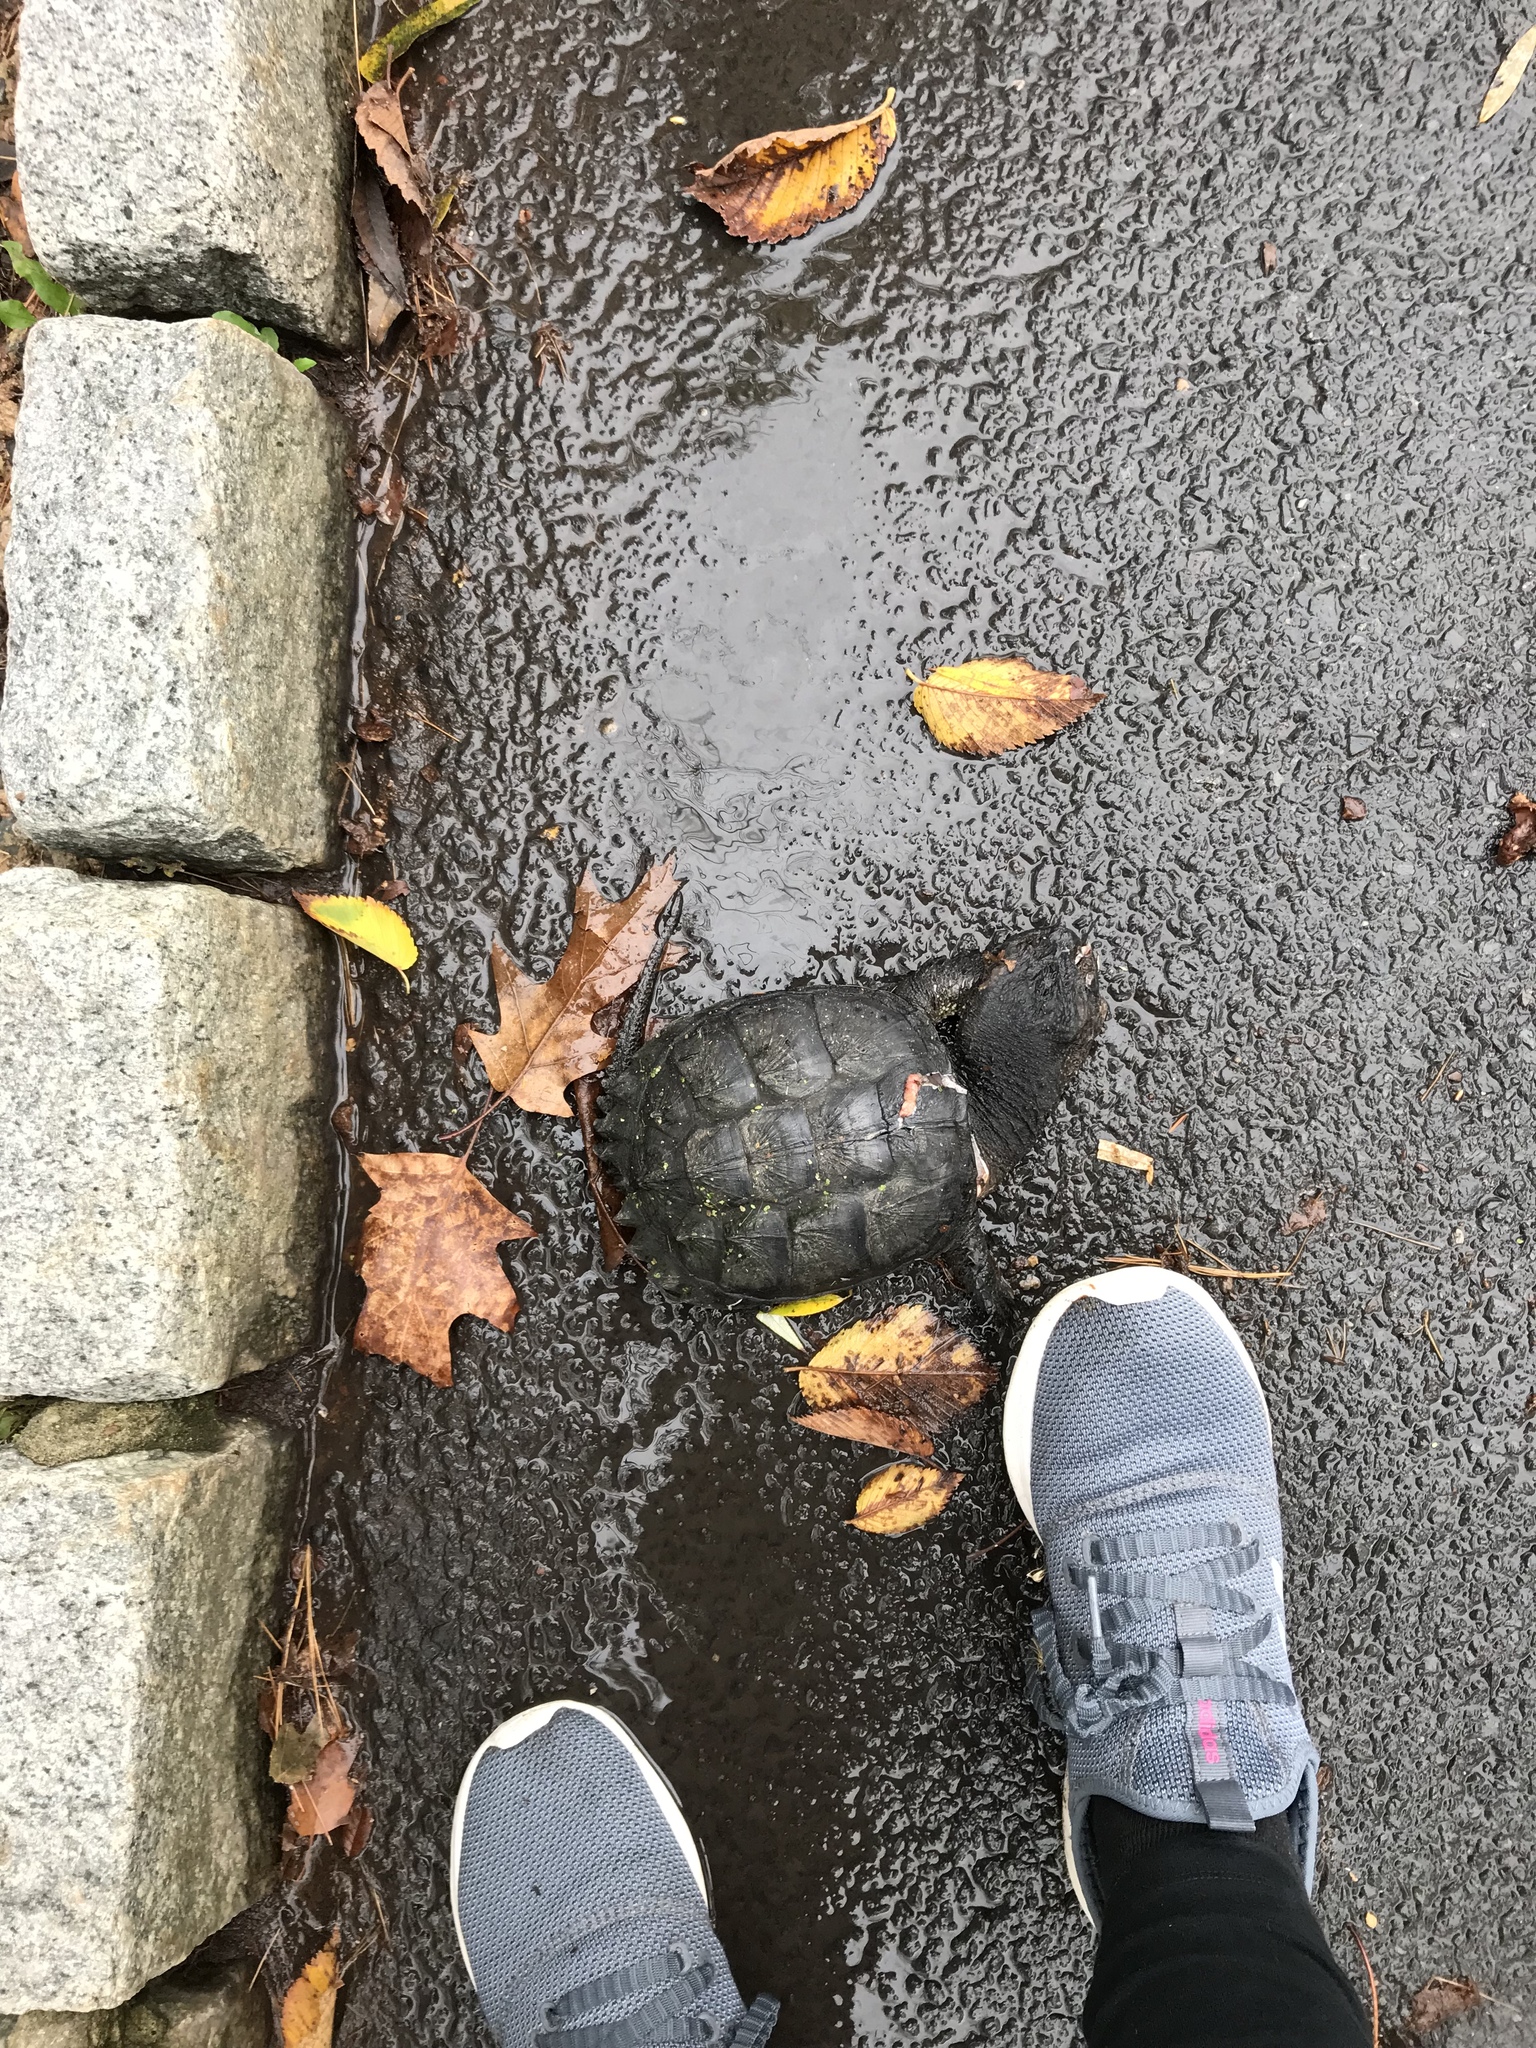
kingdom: Animalia
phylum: Chordata
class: Testudines
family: Chelydridae
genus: Chelydra
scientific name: Chelydra serpentina
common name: Common snapping turtle
